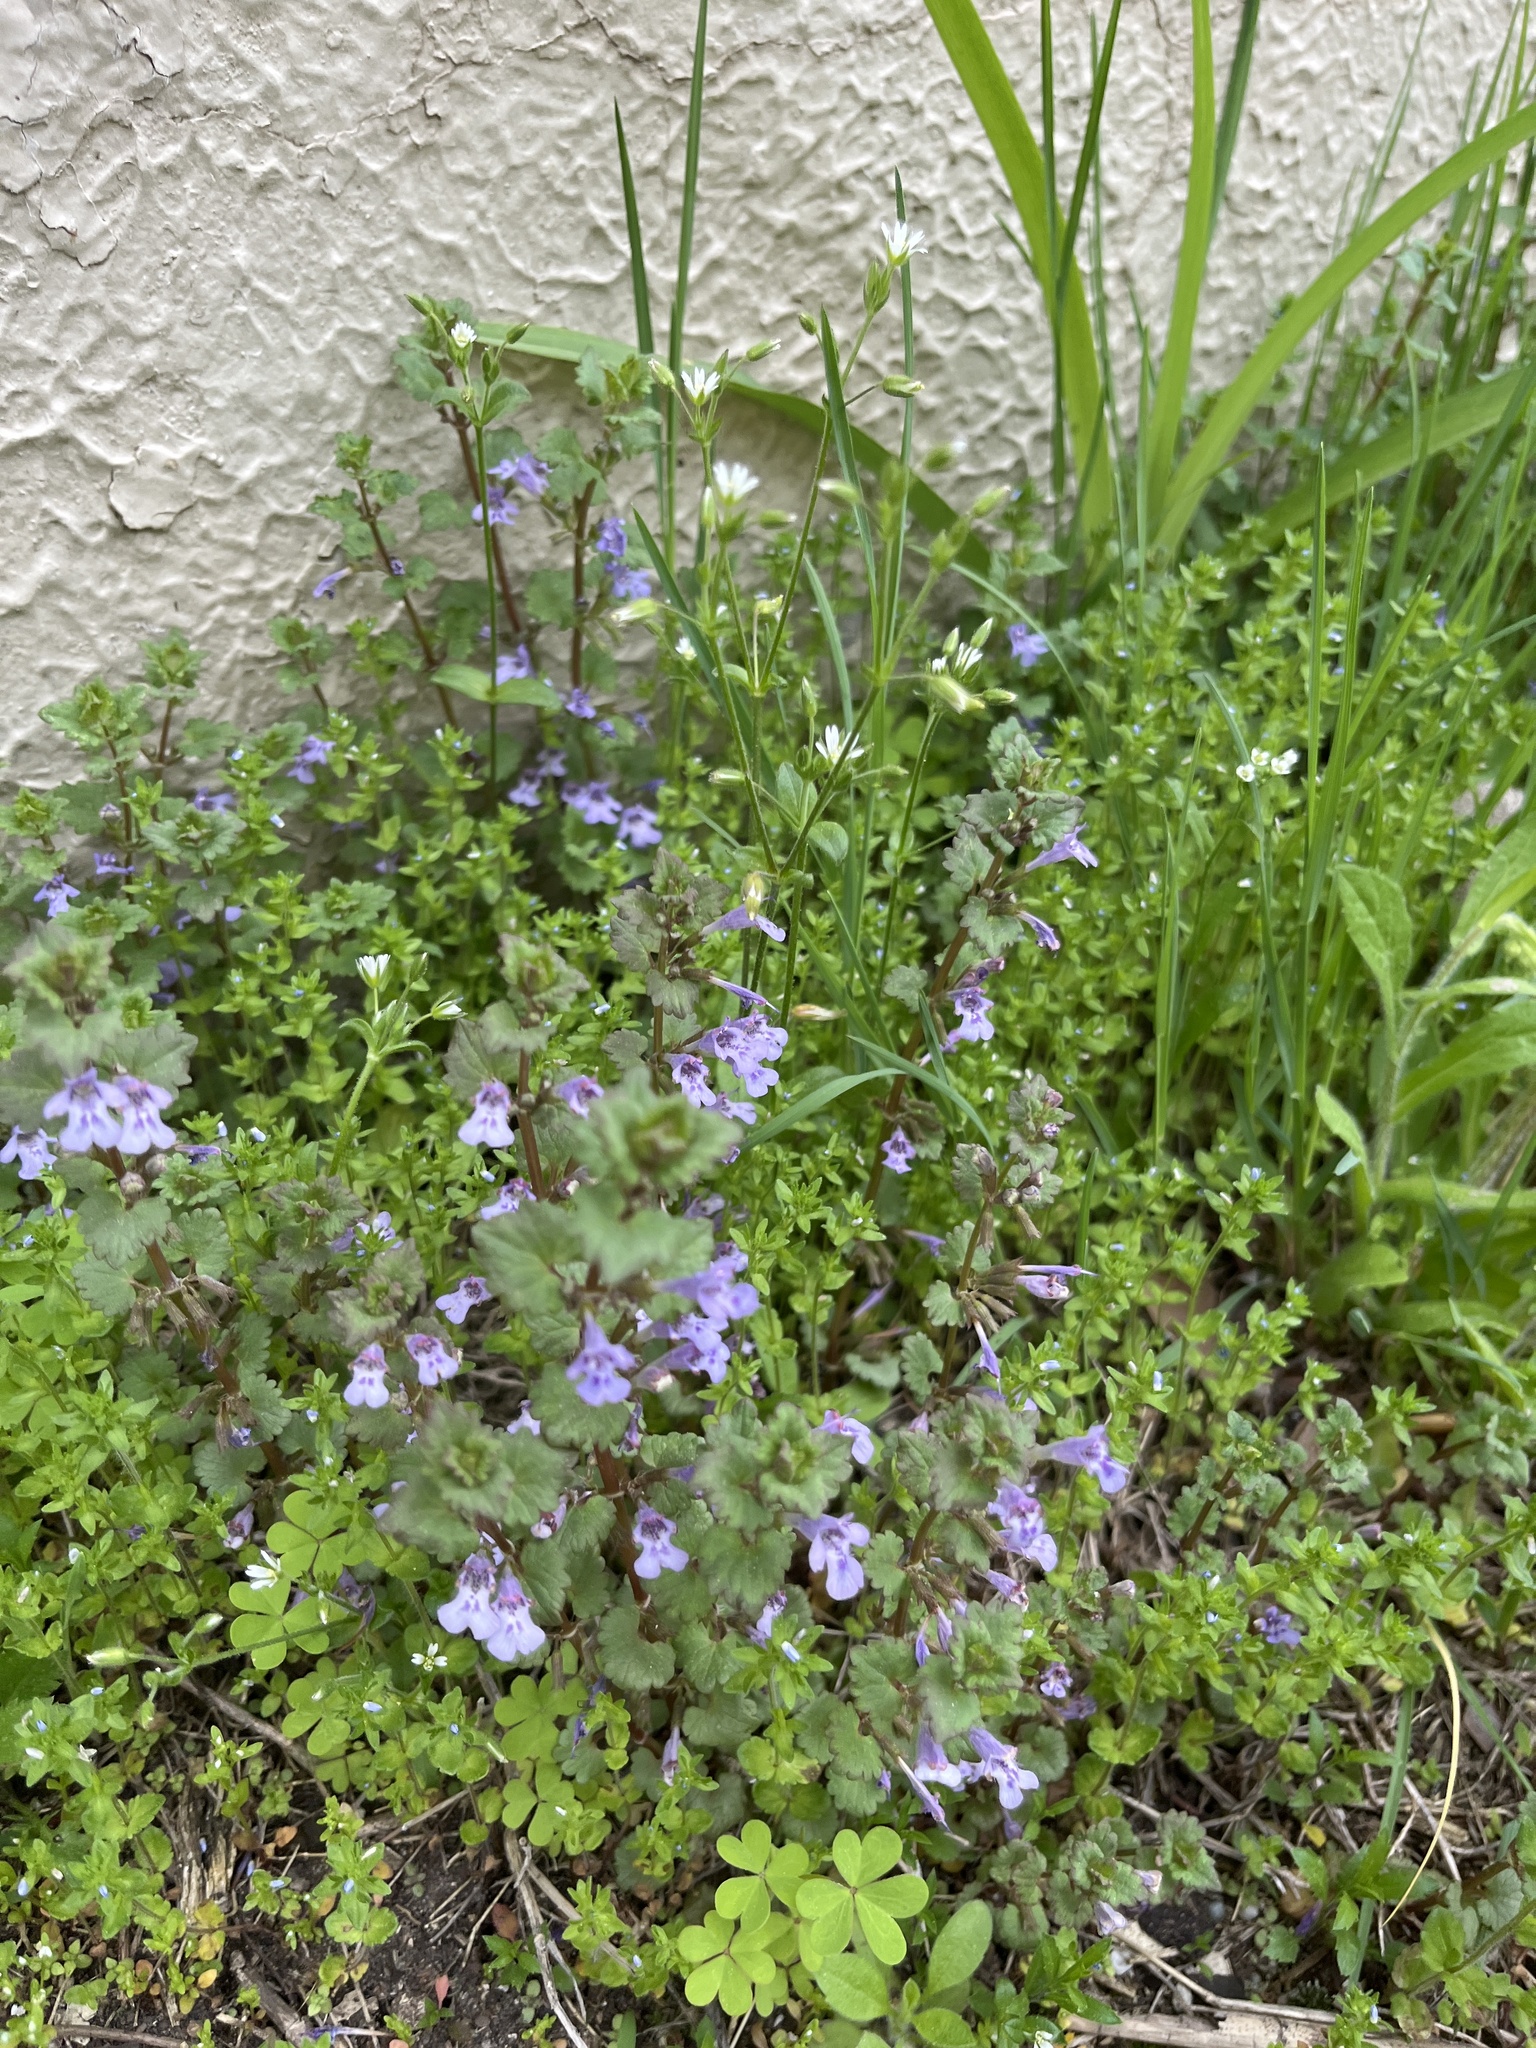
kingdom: Plantae
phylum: Tracheophyta
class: Magnoliopsida
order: Lamiales
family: Lamiaceae
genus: Glechoma
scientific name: Glechoma hederacea
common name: Ground ivy
